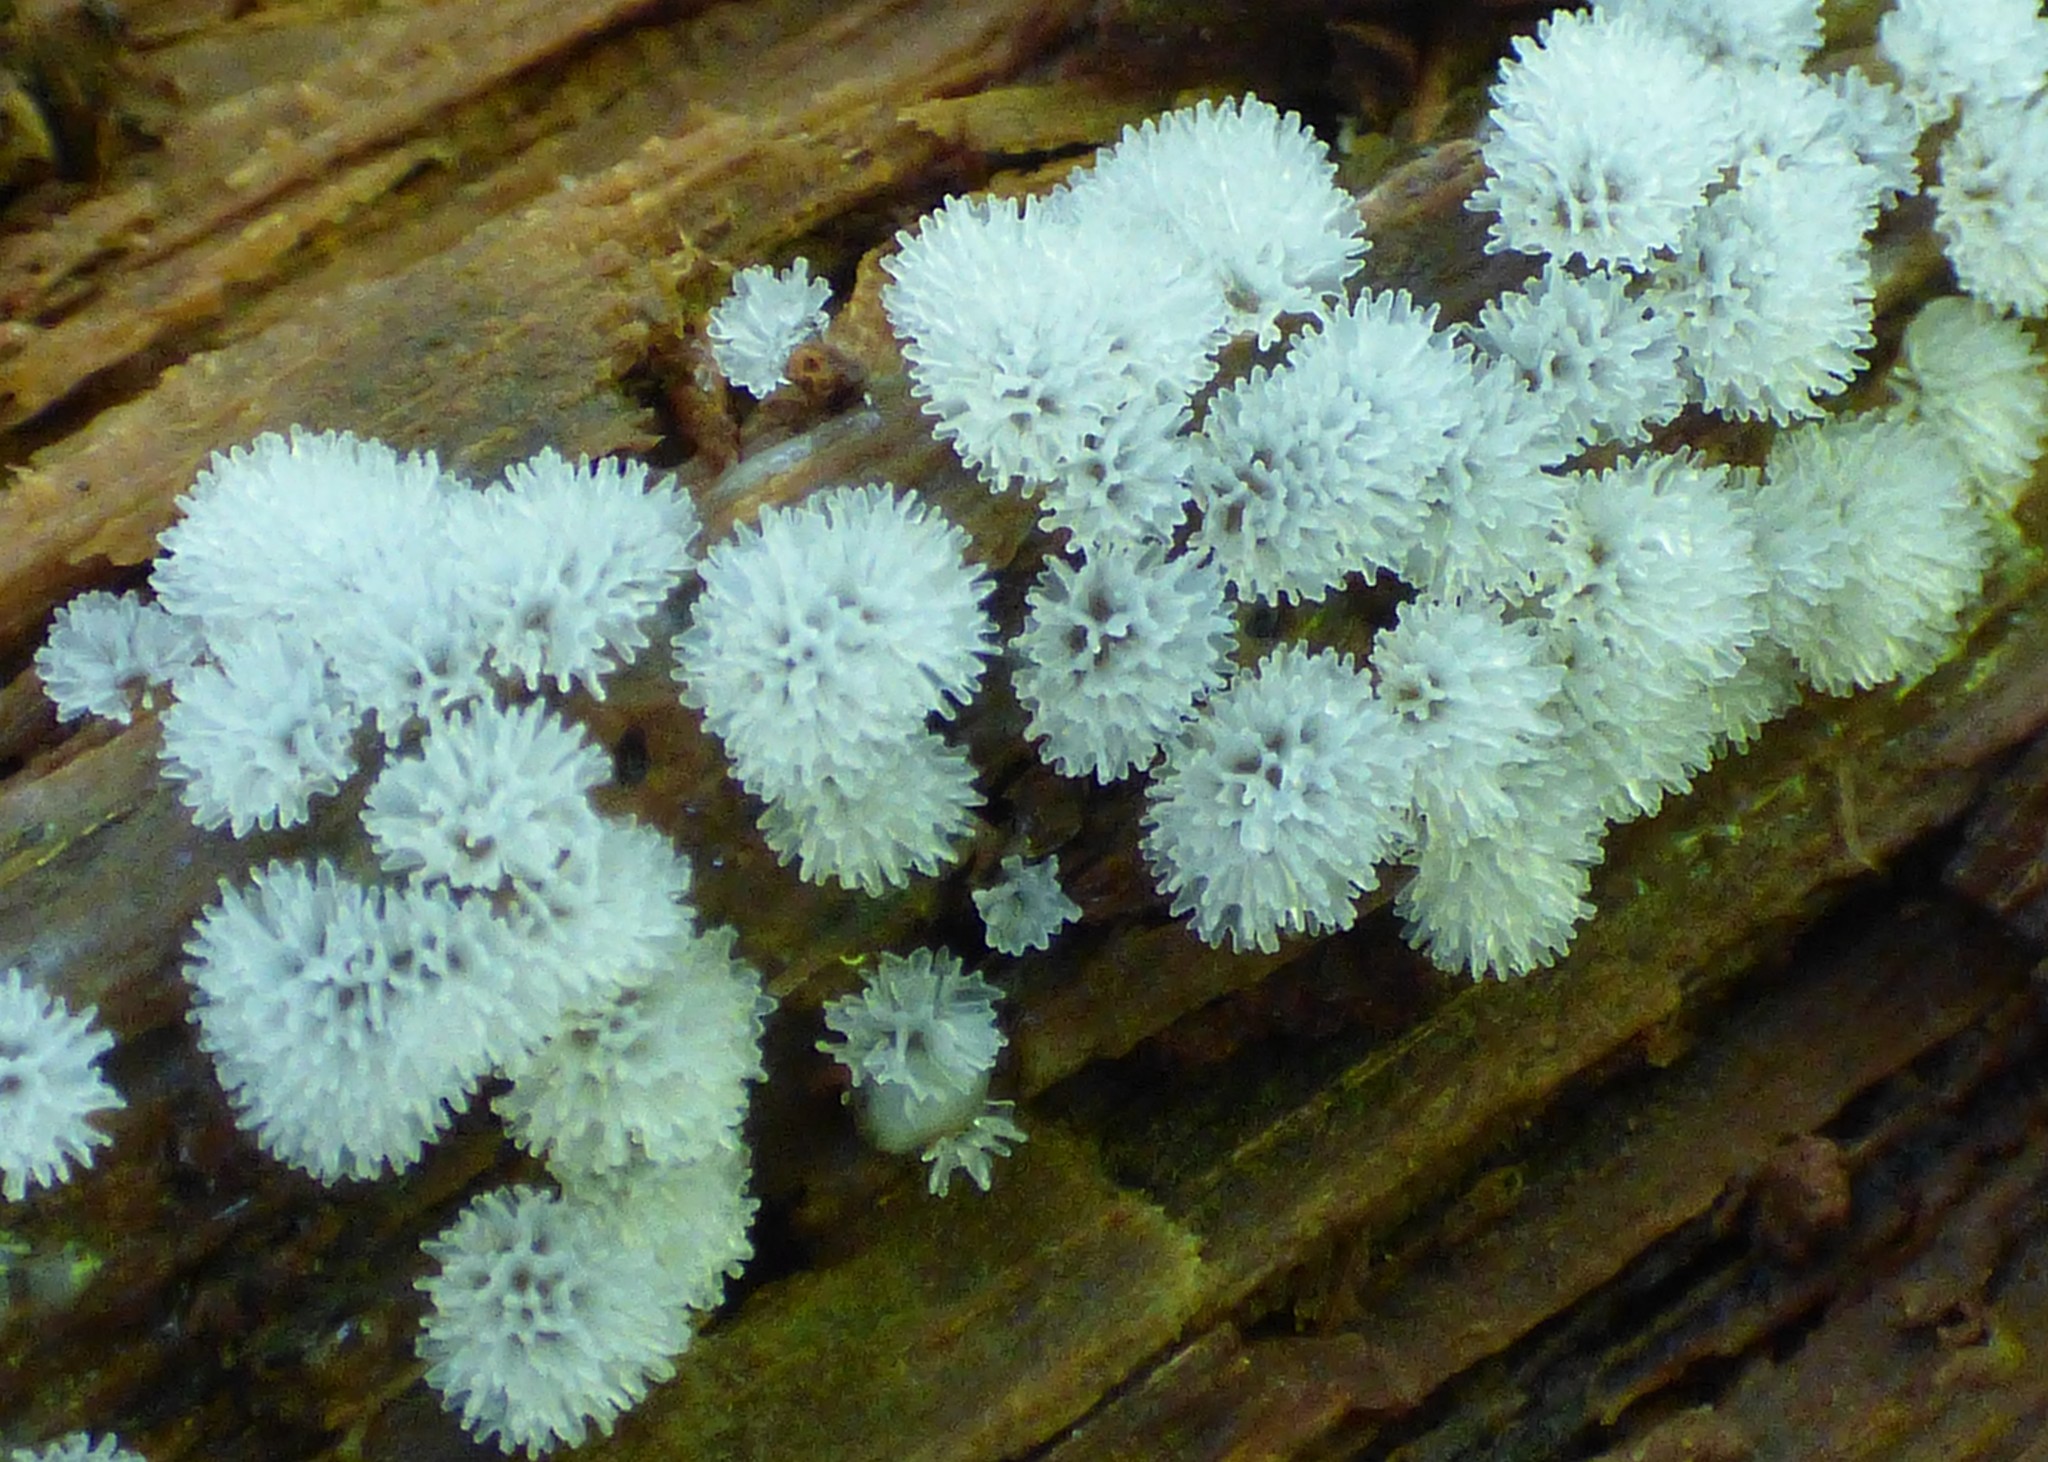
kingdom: Protozoa
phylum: Mycetozoa
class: Protosteliomycetes
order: Ceratiomyxales
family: Ceratiomyxaceae
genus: Ceratiomyxa
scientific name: Ceratiomyxa fruticulosa
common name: Honeycomb coral slime mold
